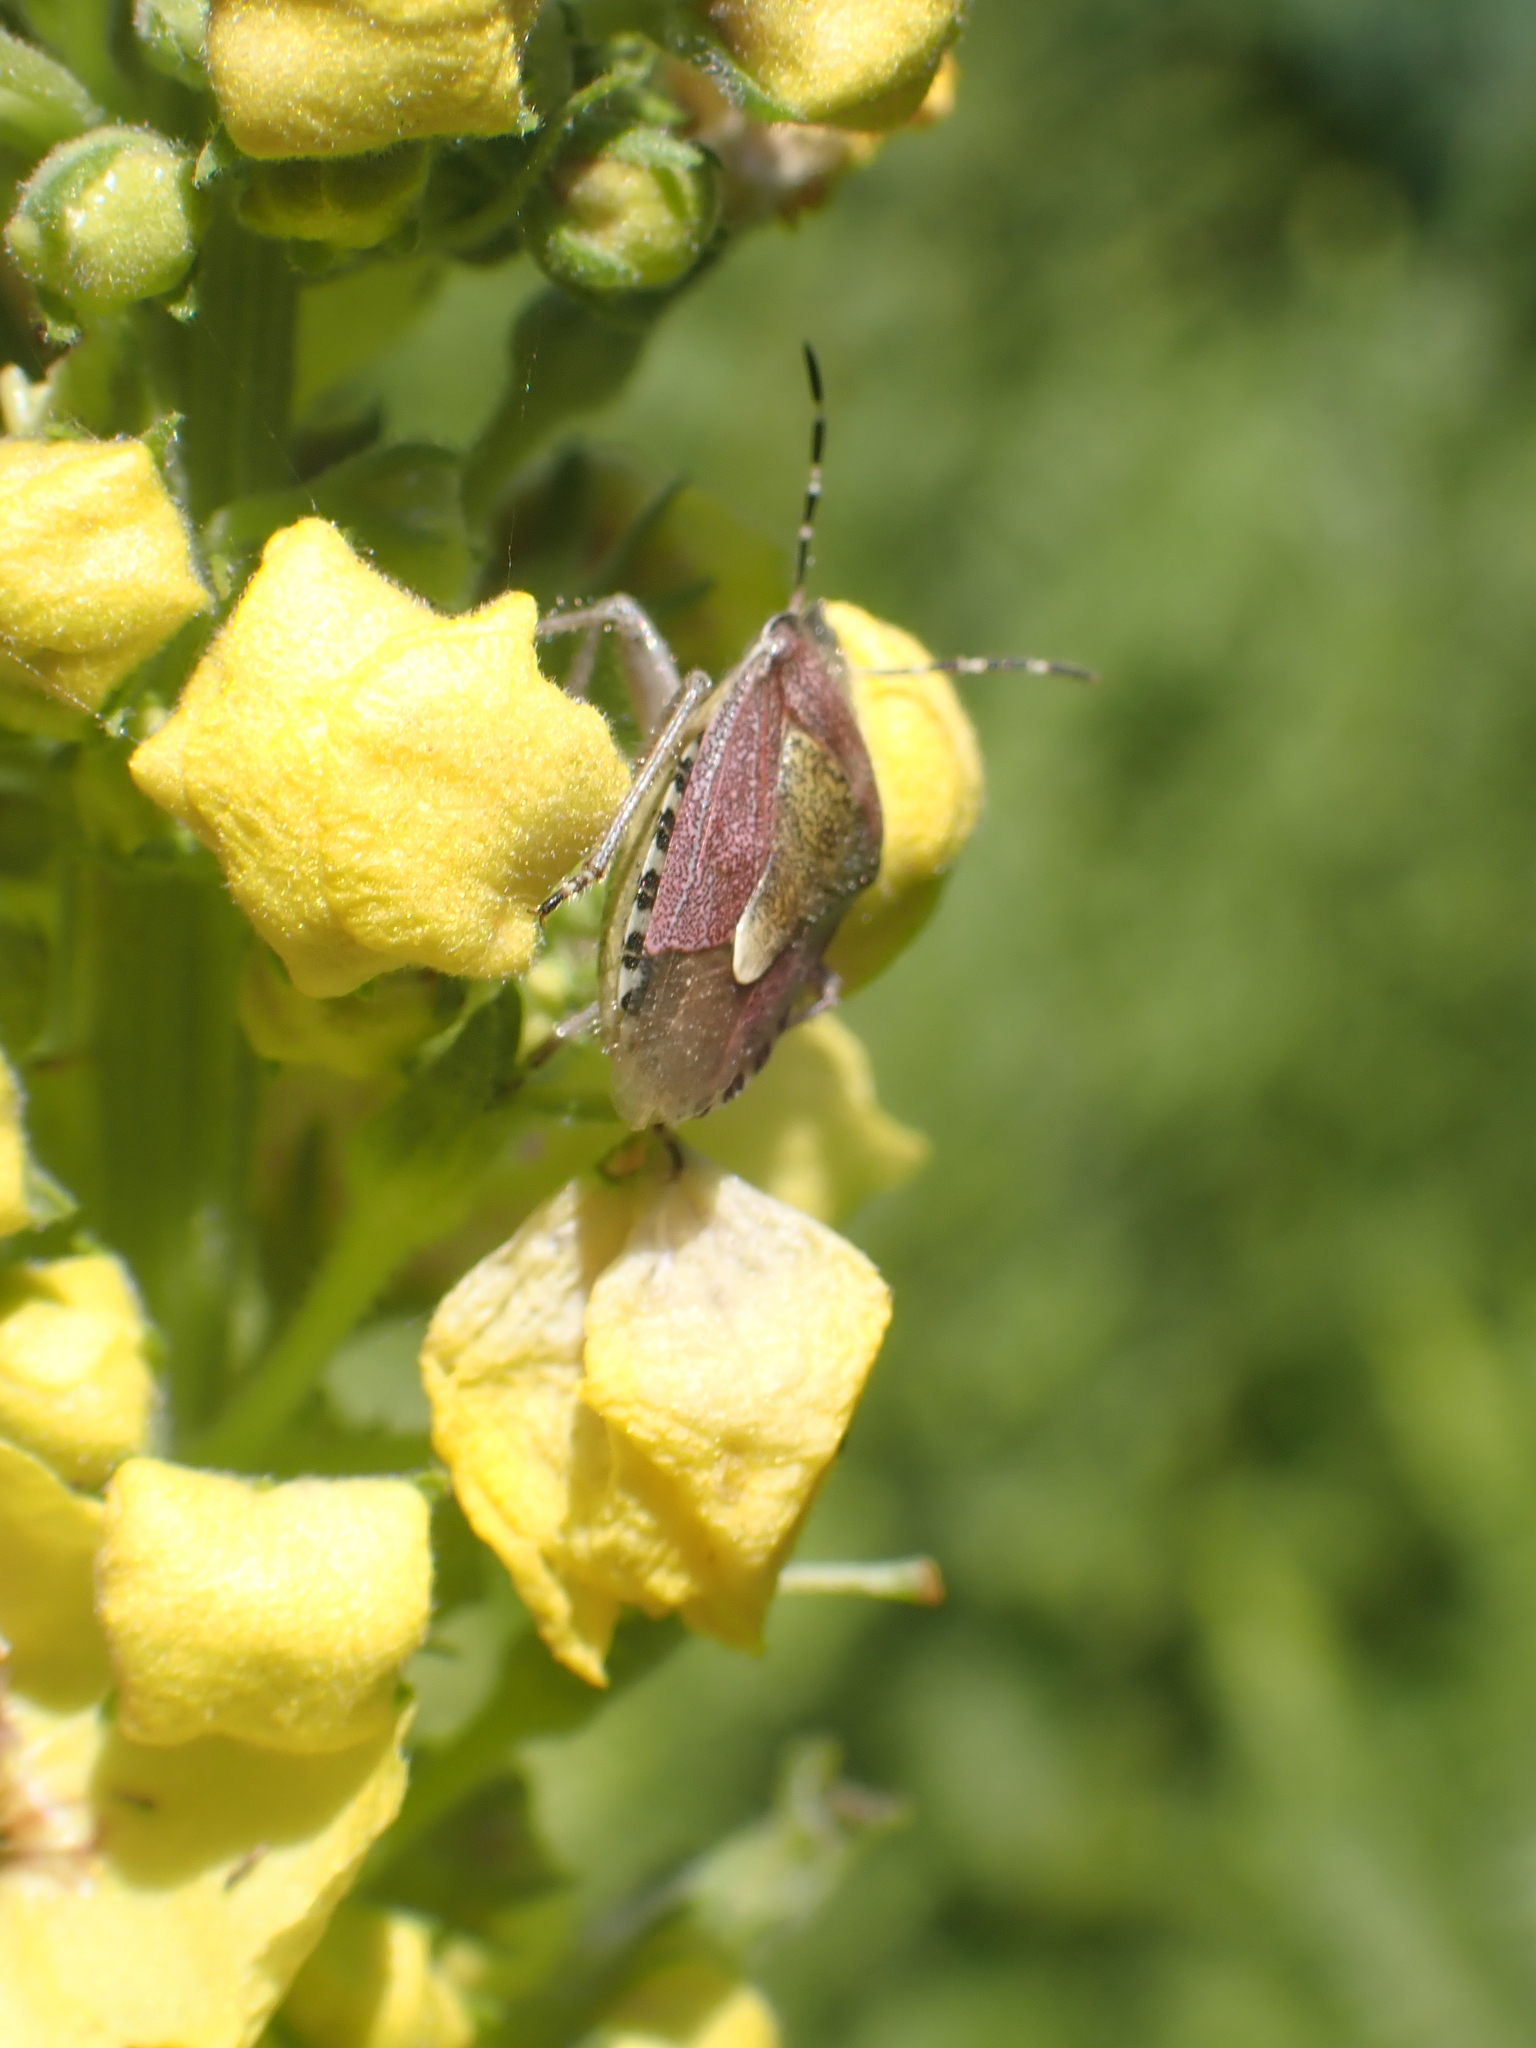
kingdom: Animalia
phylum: Arthropoda
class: Insecta
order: Hemiptera
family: Pentatomidae
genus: Dolycoris
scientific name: Dolycoris baccarum
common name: Sloe bug
